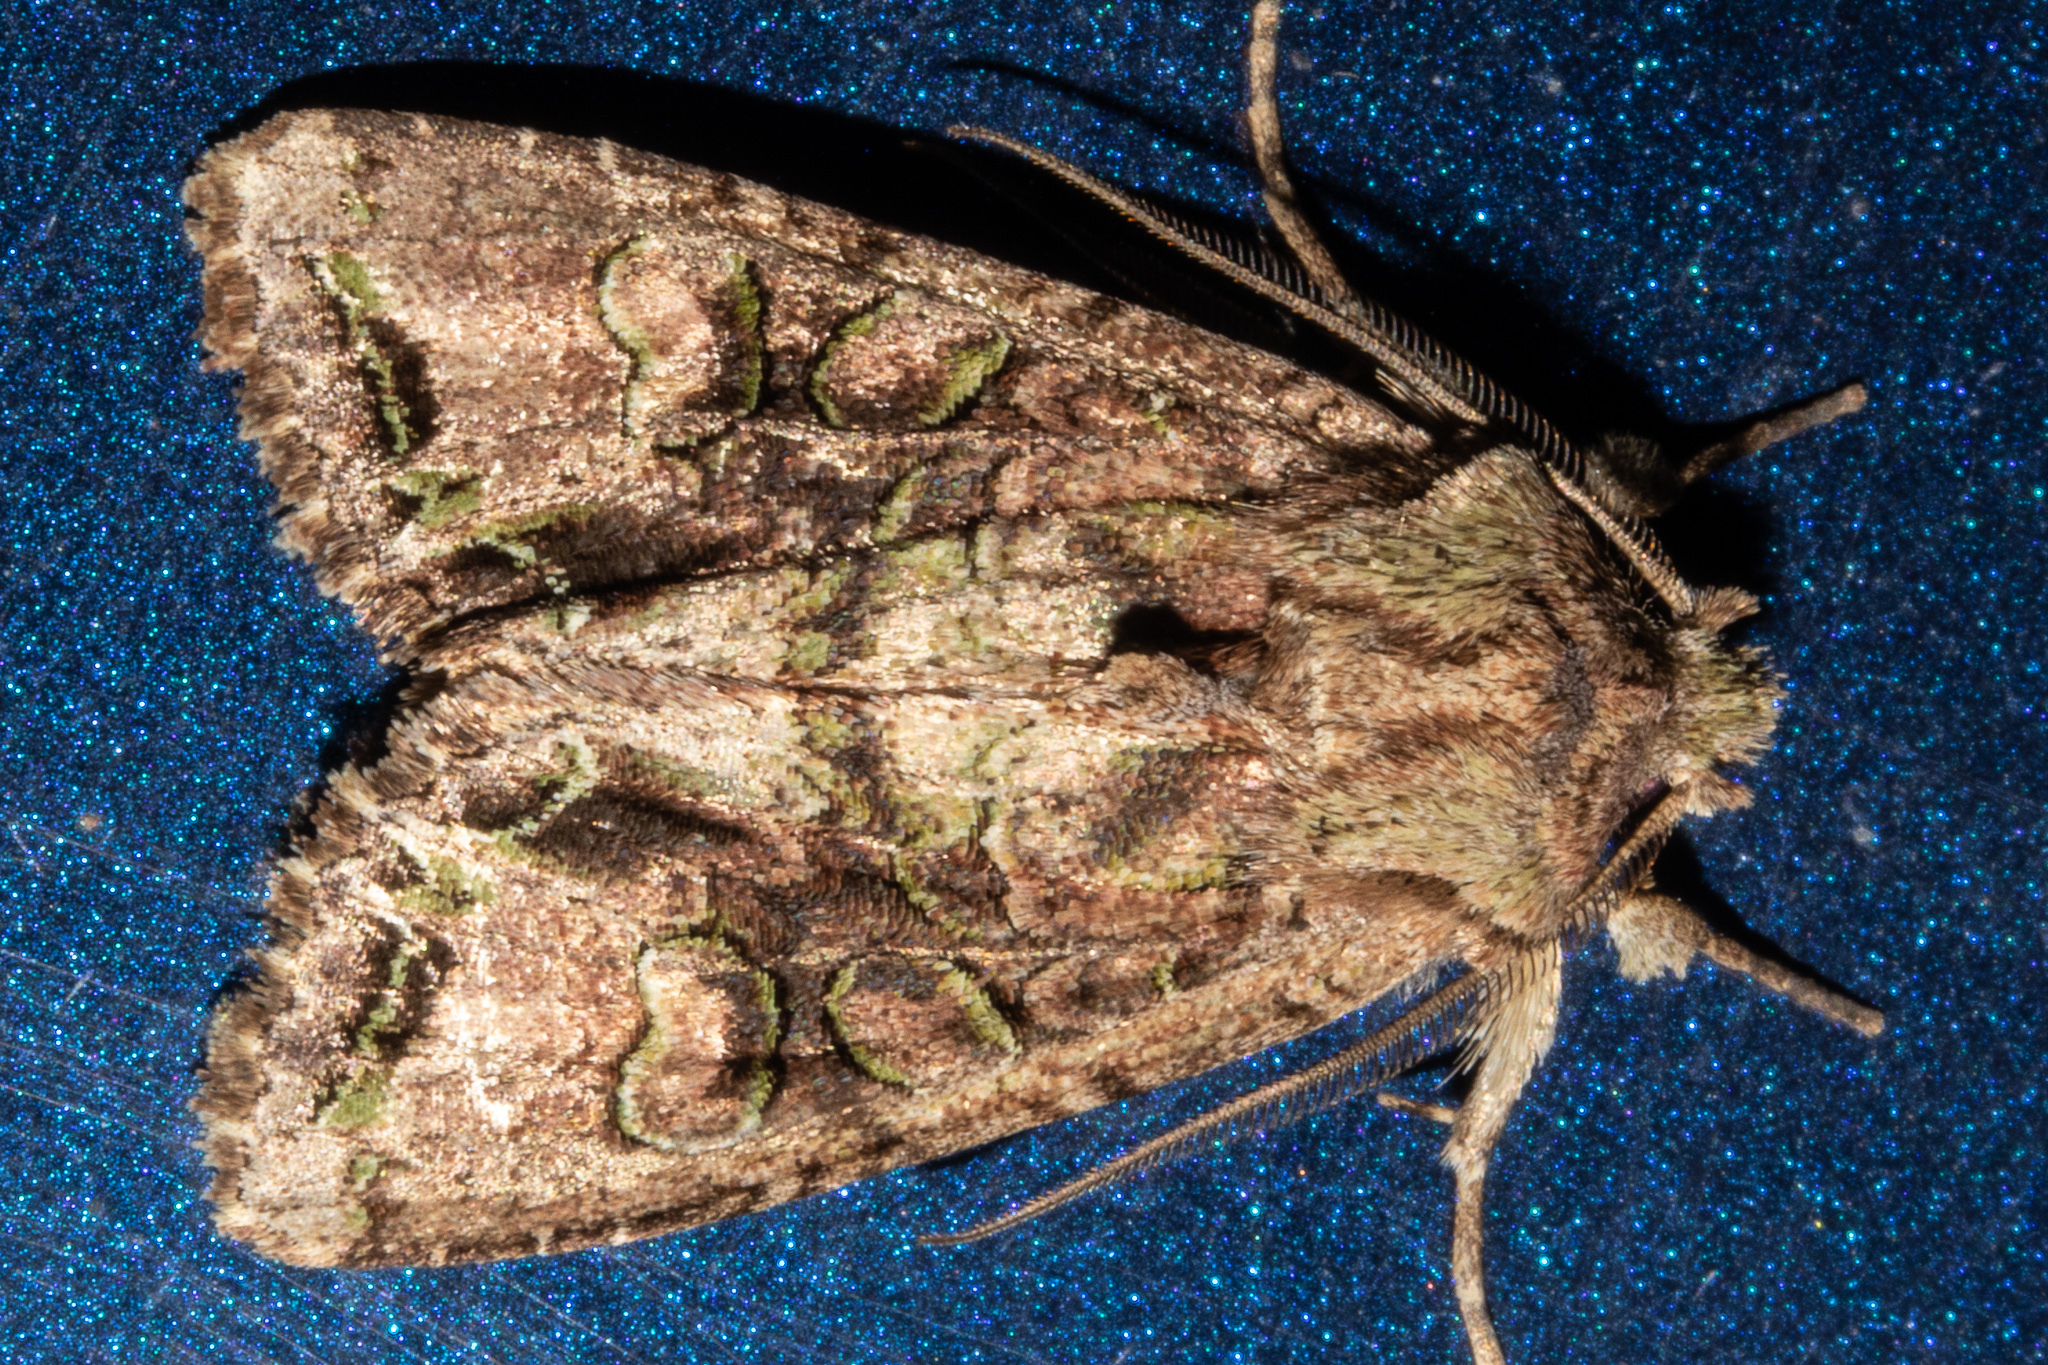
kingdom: Animalia
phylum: Arthropoda
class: Insecta
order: Lepidoptera
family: Noctuidae
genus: Ichneutica
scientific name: Ichneutica skelloni
